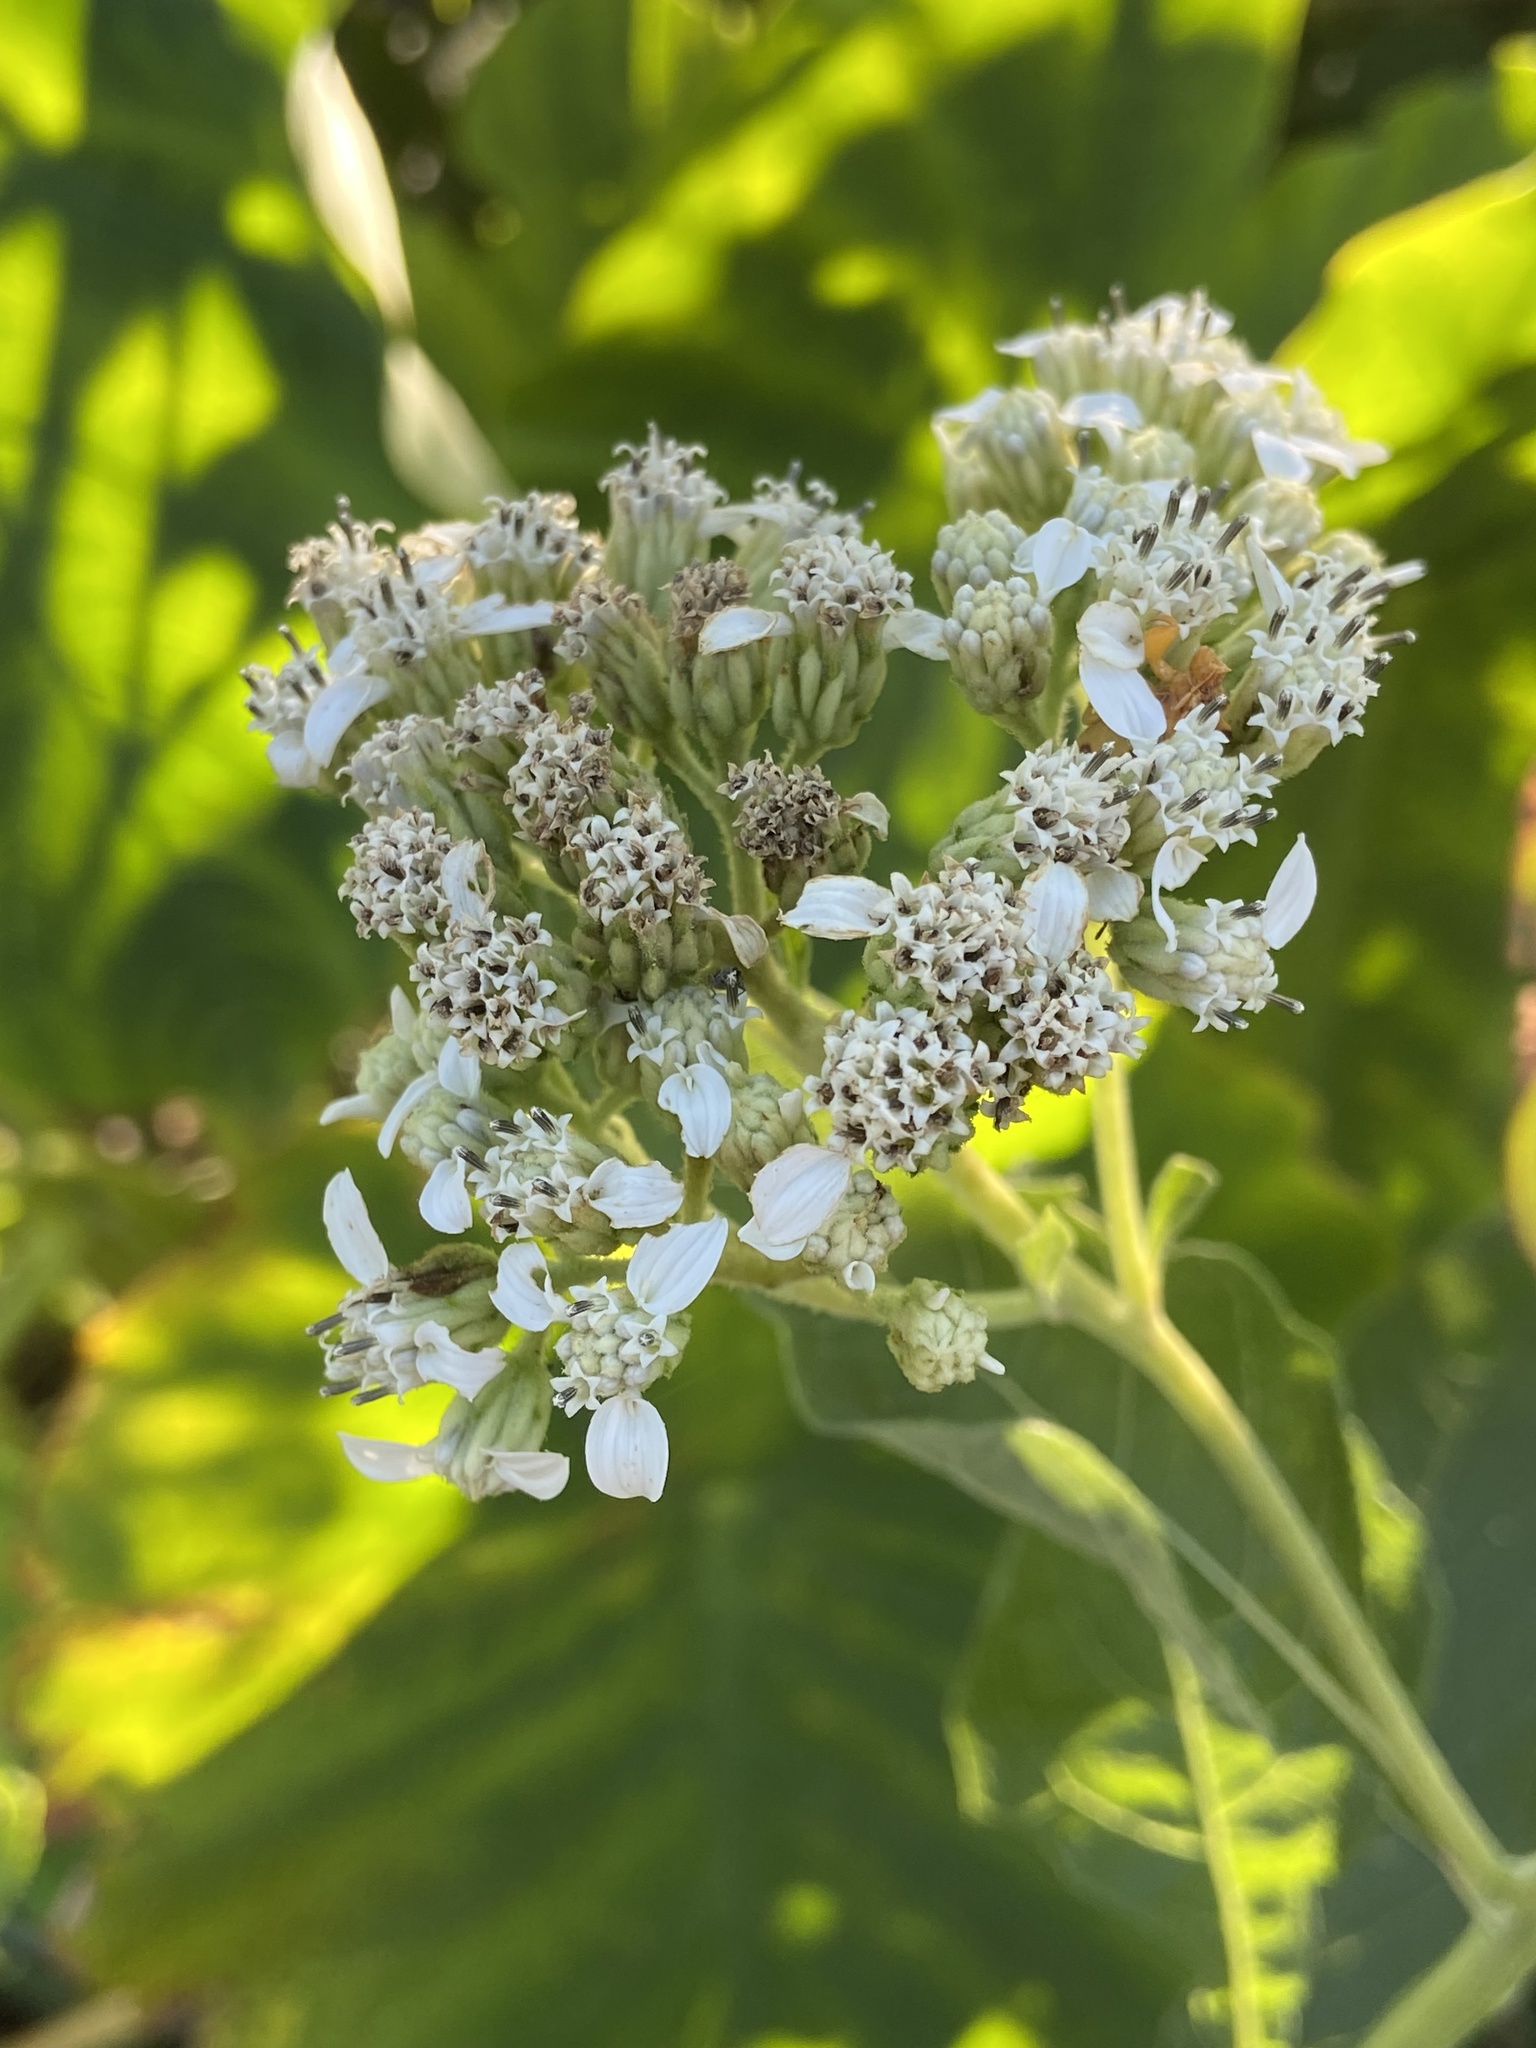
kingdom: Plantae
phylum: Tracheophyta
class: Magnoliopsida
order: Asterales
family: Asteraceae
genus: Verbesina
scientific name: Verbesina virginica
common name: Frostweed
